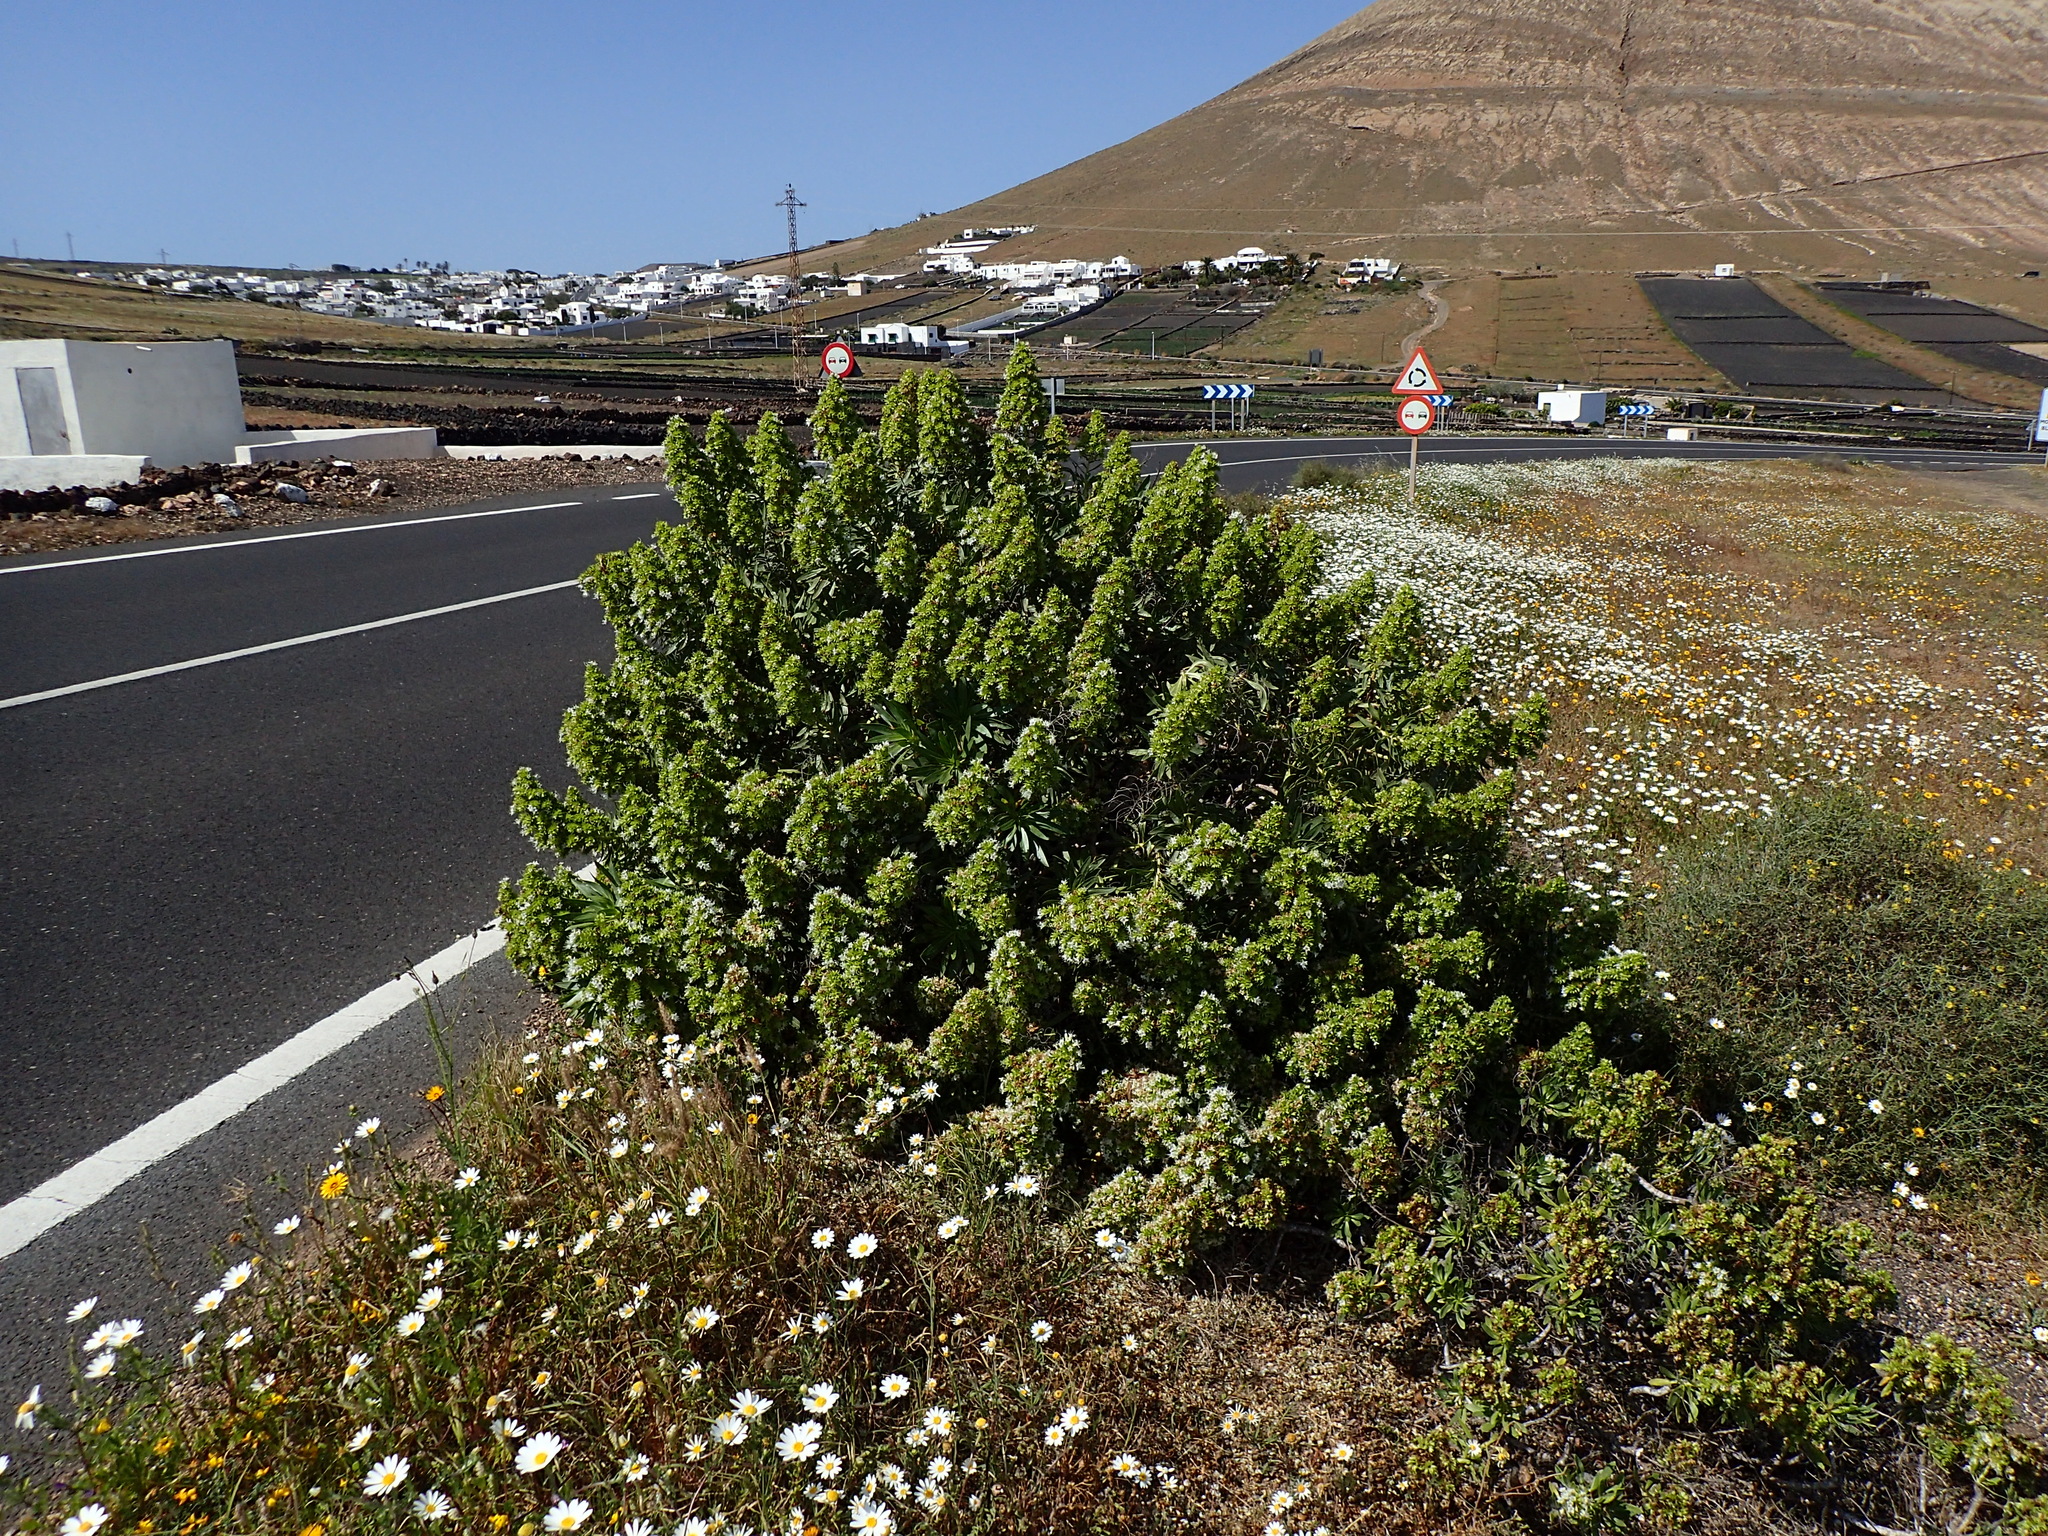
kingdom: Plantae
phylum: Tracheophyta
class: Magnoliopsida
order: Boraginales
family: Boraginaceae
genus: Echium
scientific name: Echium decaisnei
